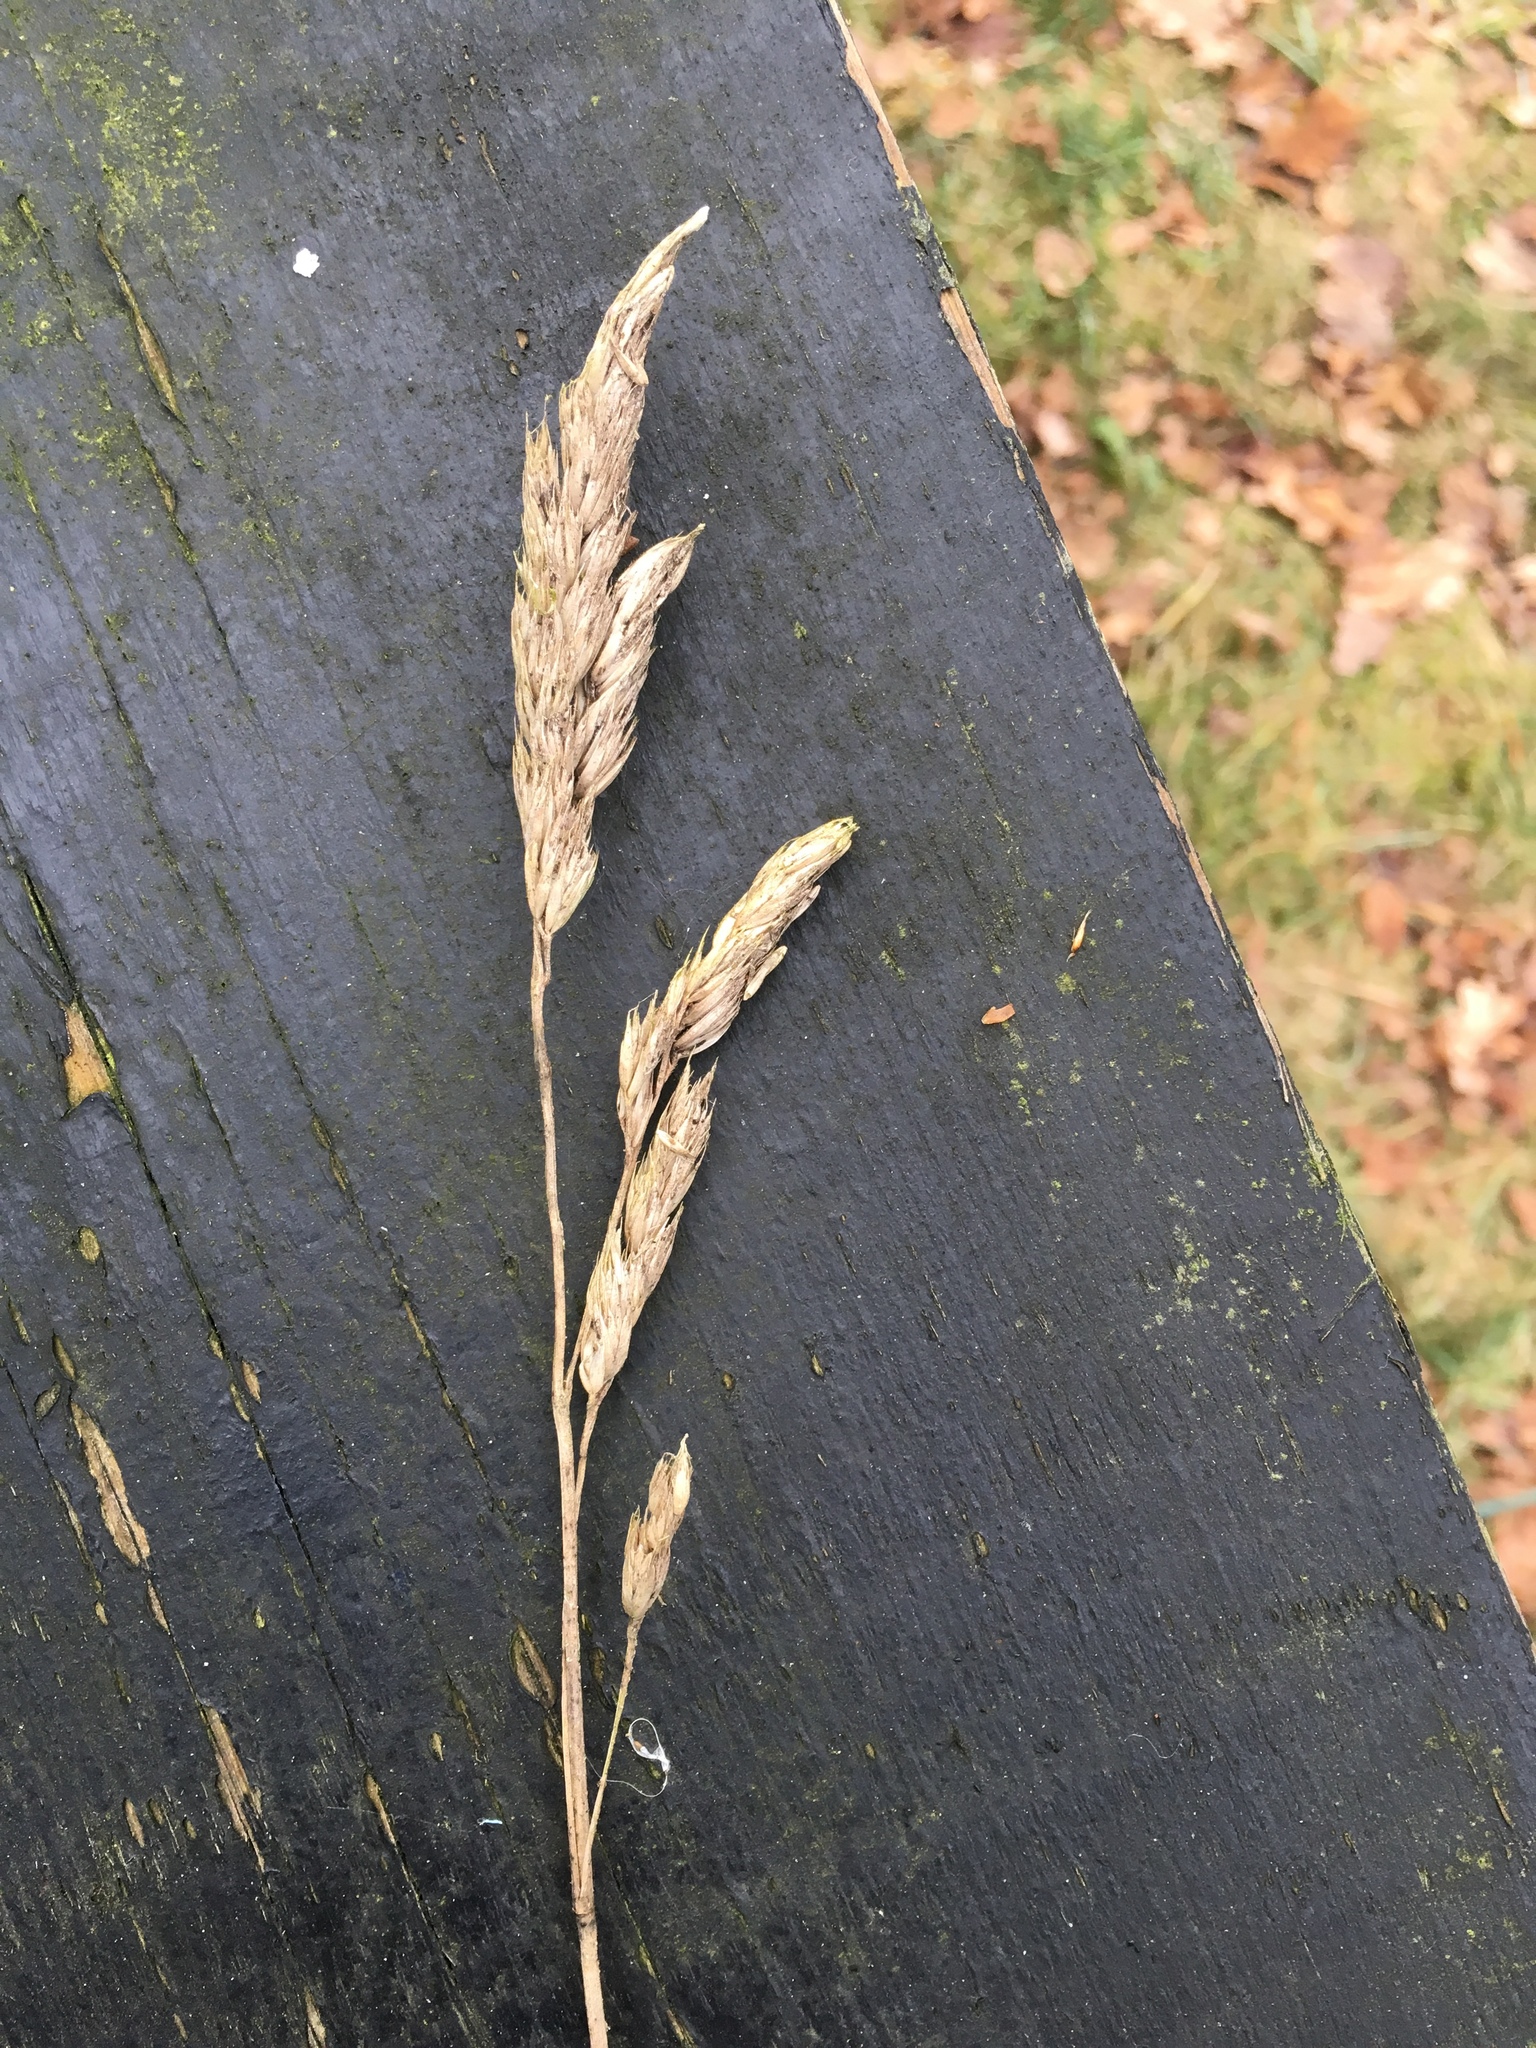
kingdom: Plantae
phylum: Tracheophyta
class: Liliopsida
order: Poales
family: Poaceae
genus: Dactylis
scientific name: Dactylis glomerata
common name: Orchardgrass
